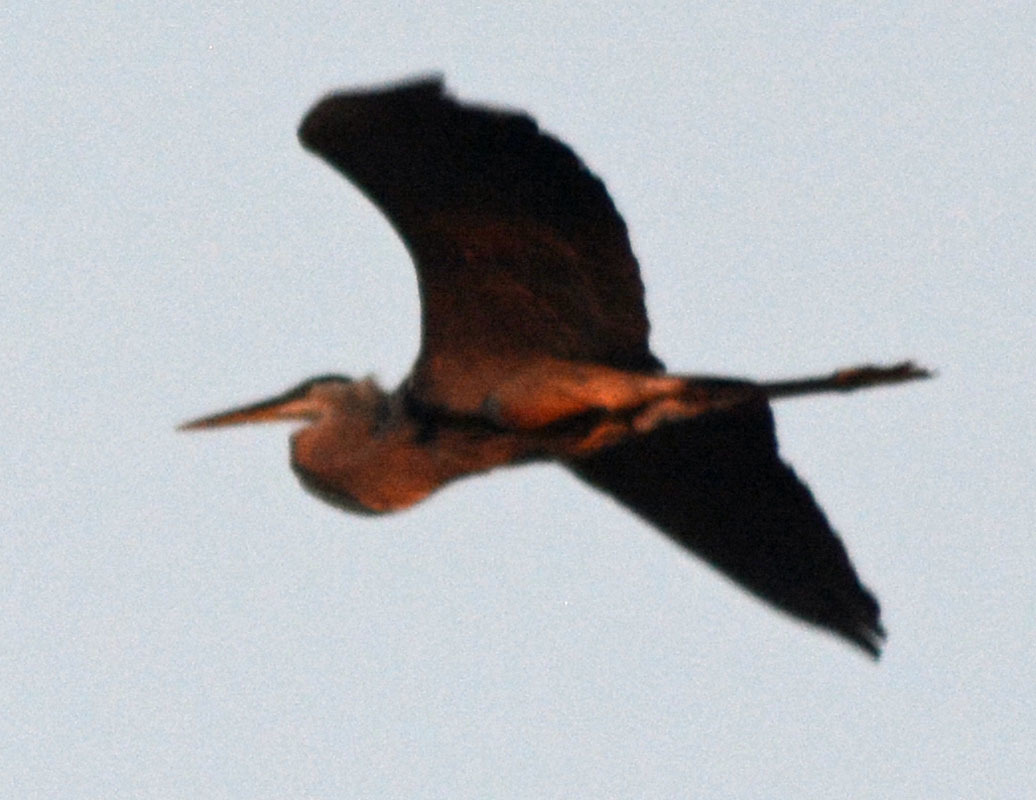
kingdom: Animalia
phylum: Chordata
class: Aves
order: Pelecaniformes
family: Ardeidae
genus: Ardea
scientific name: Ardea herodias
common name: Great blue heron
